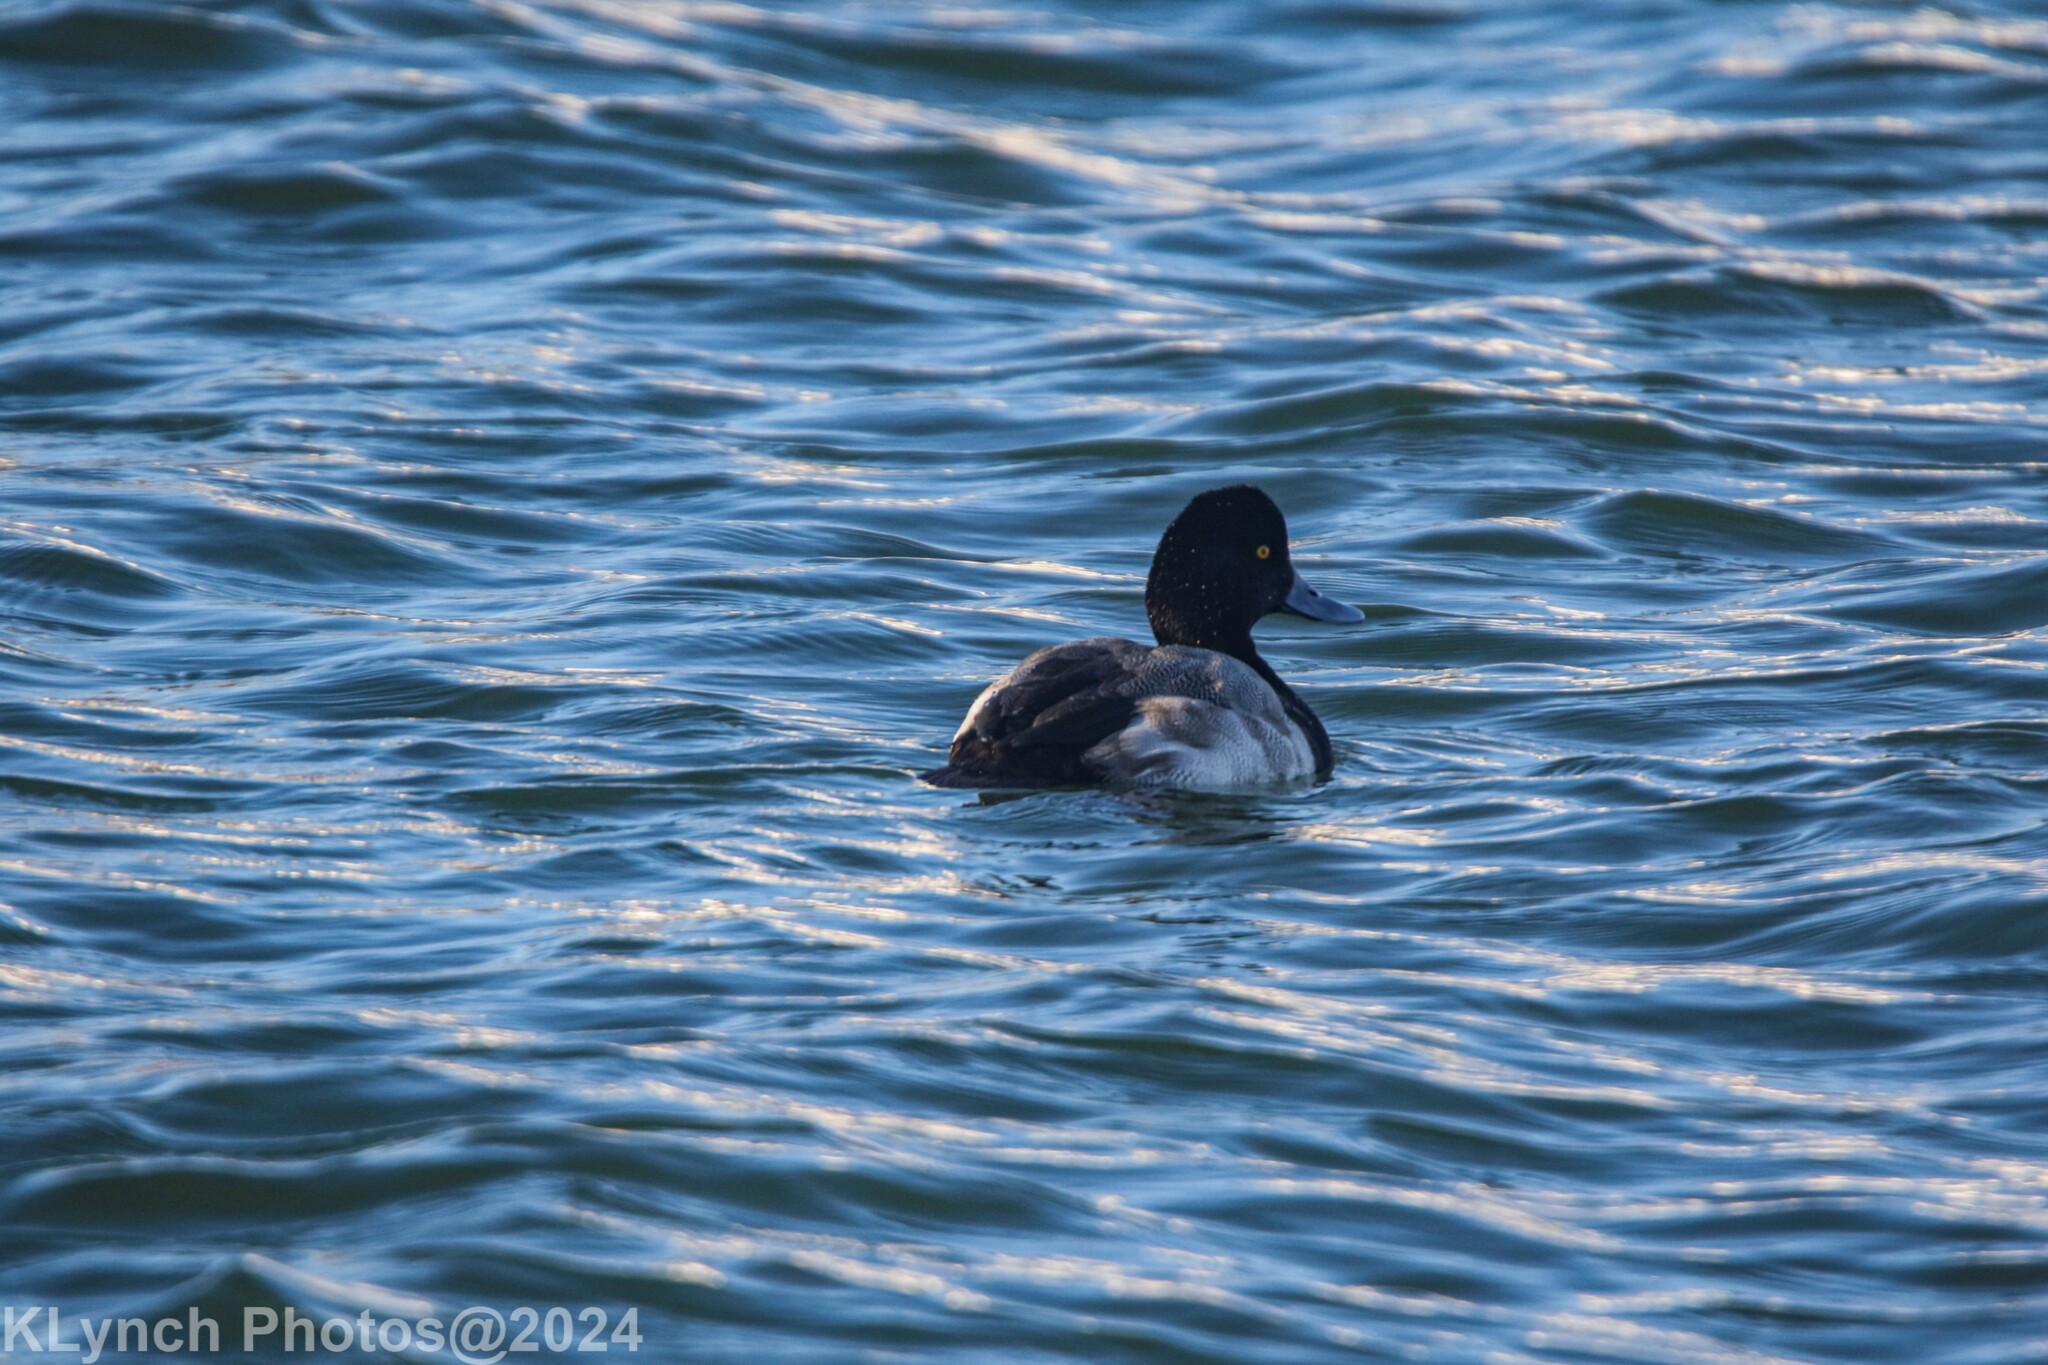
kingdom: Animalia
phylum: Chordata
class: Aves
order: Anseriformes
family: Anatidae
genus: Aythya
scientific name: Aythya affinis
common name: Lesser scaup
